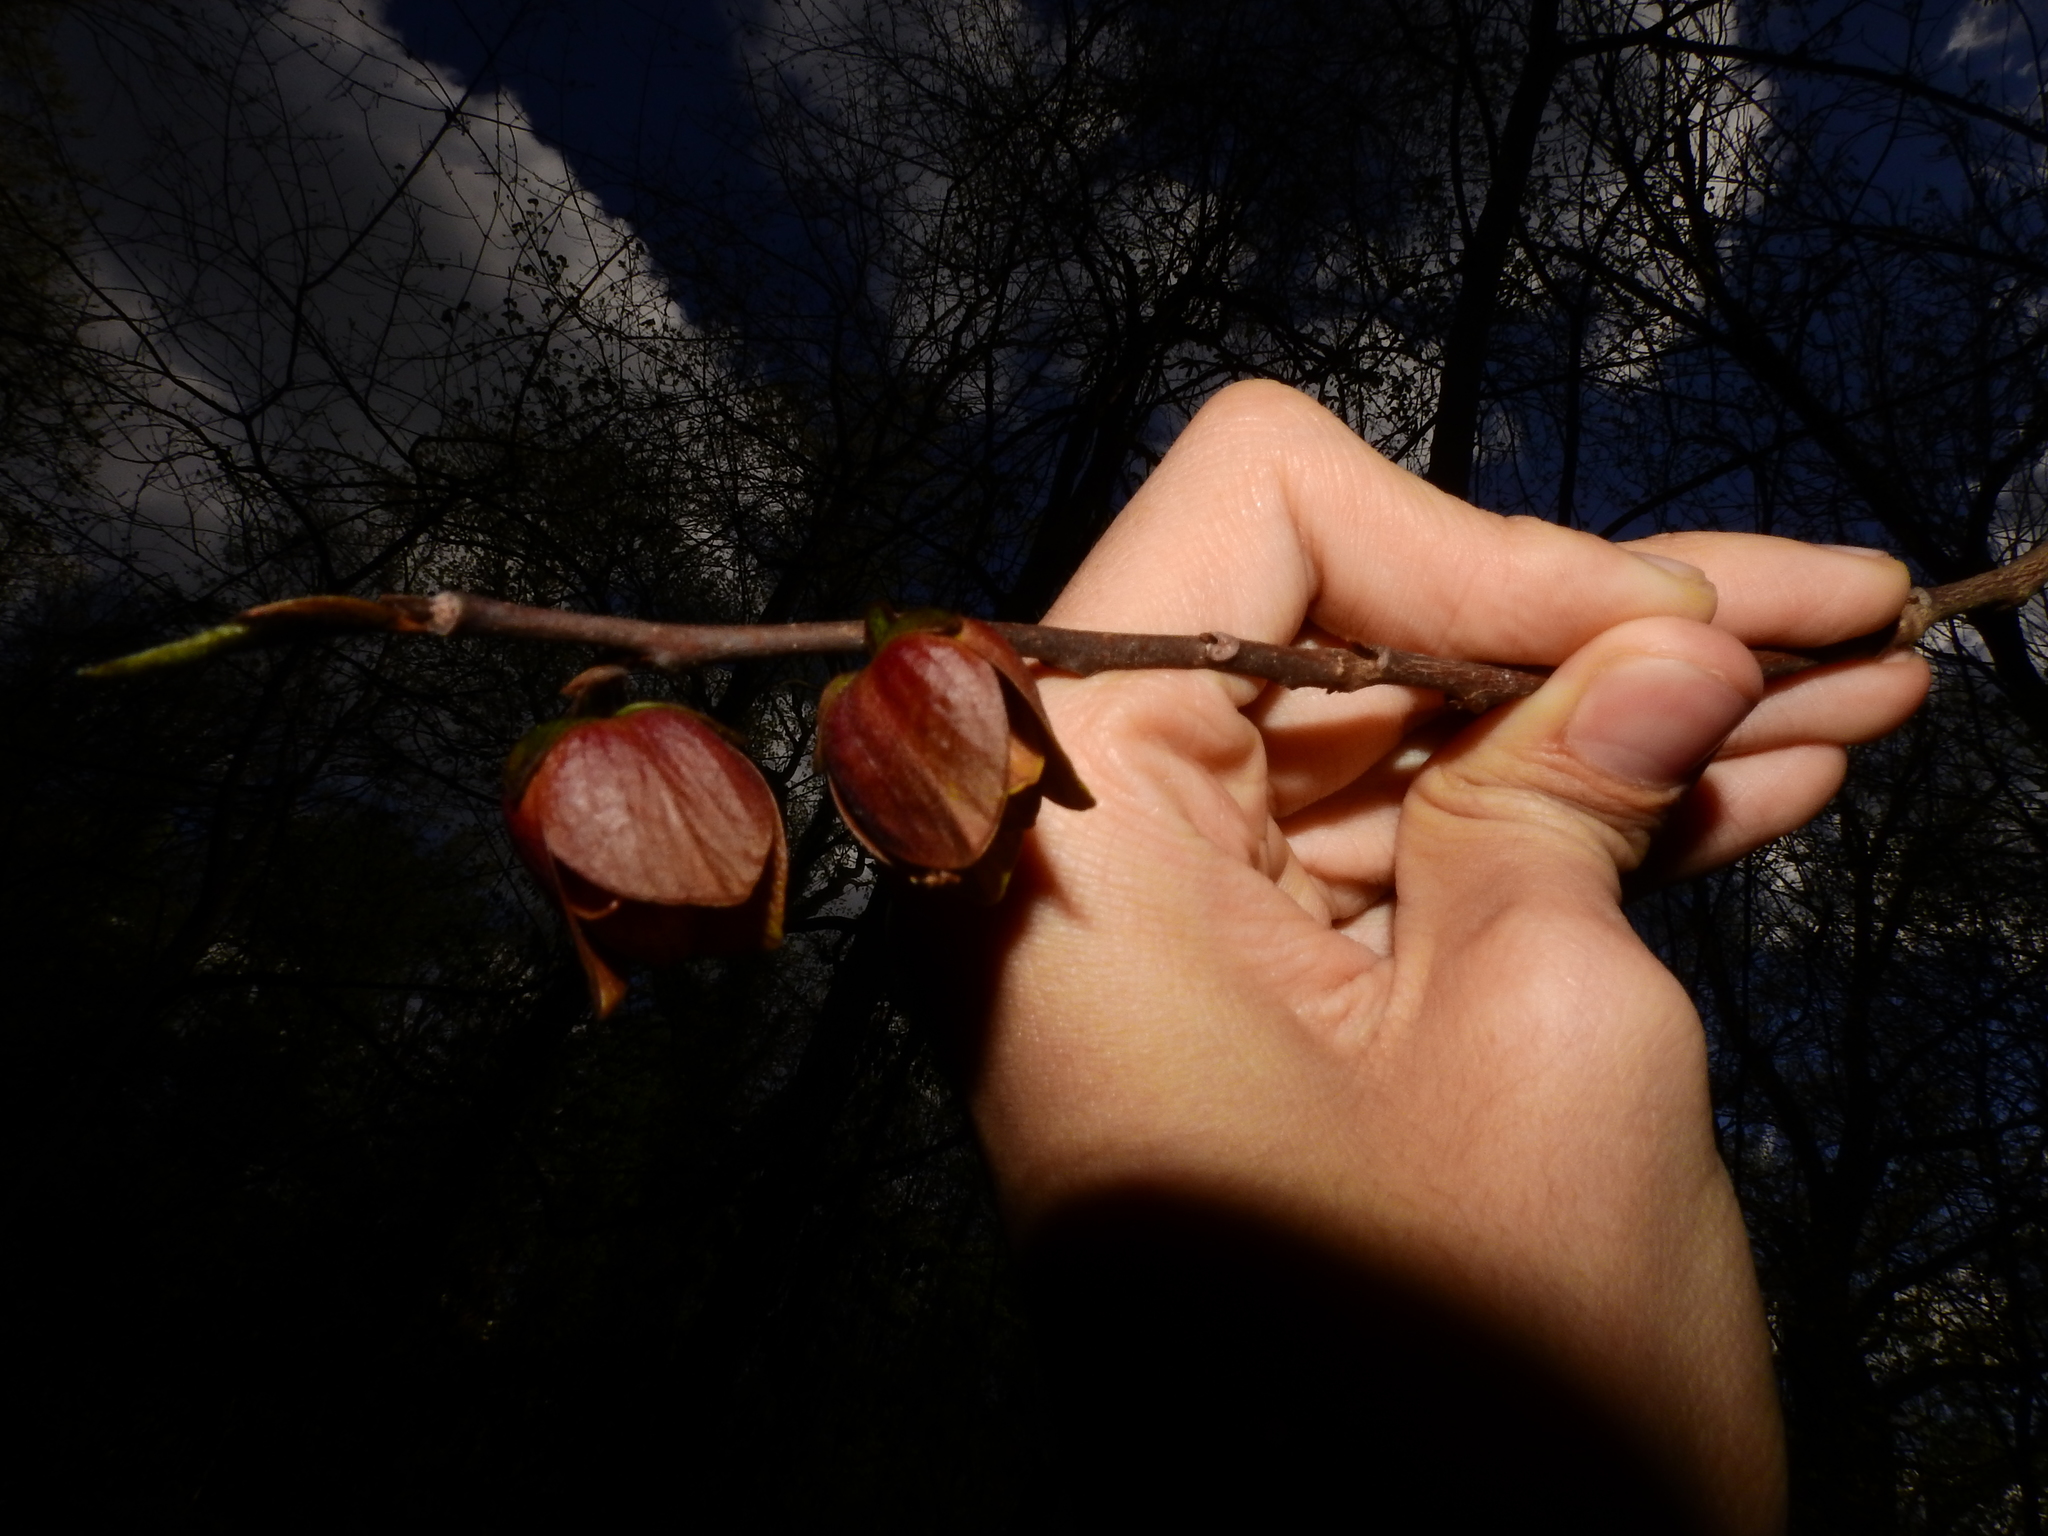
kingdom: Plantae
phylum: Tracheophyta
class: Magnoliopsida
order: Magnoliales
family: Annonaceae
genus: Asimina
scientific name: Asimina triloba
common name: Dog-banana
